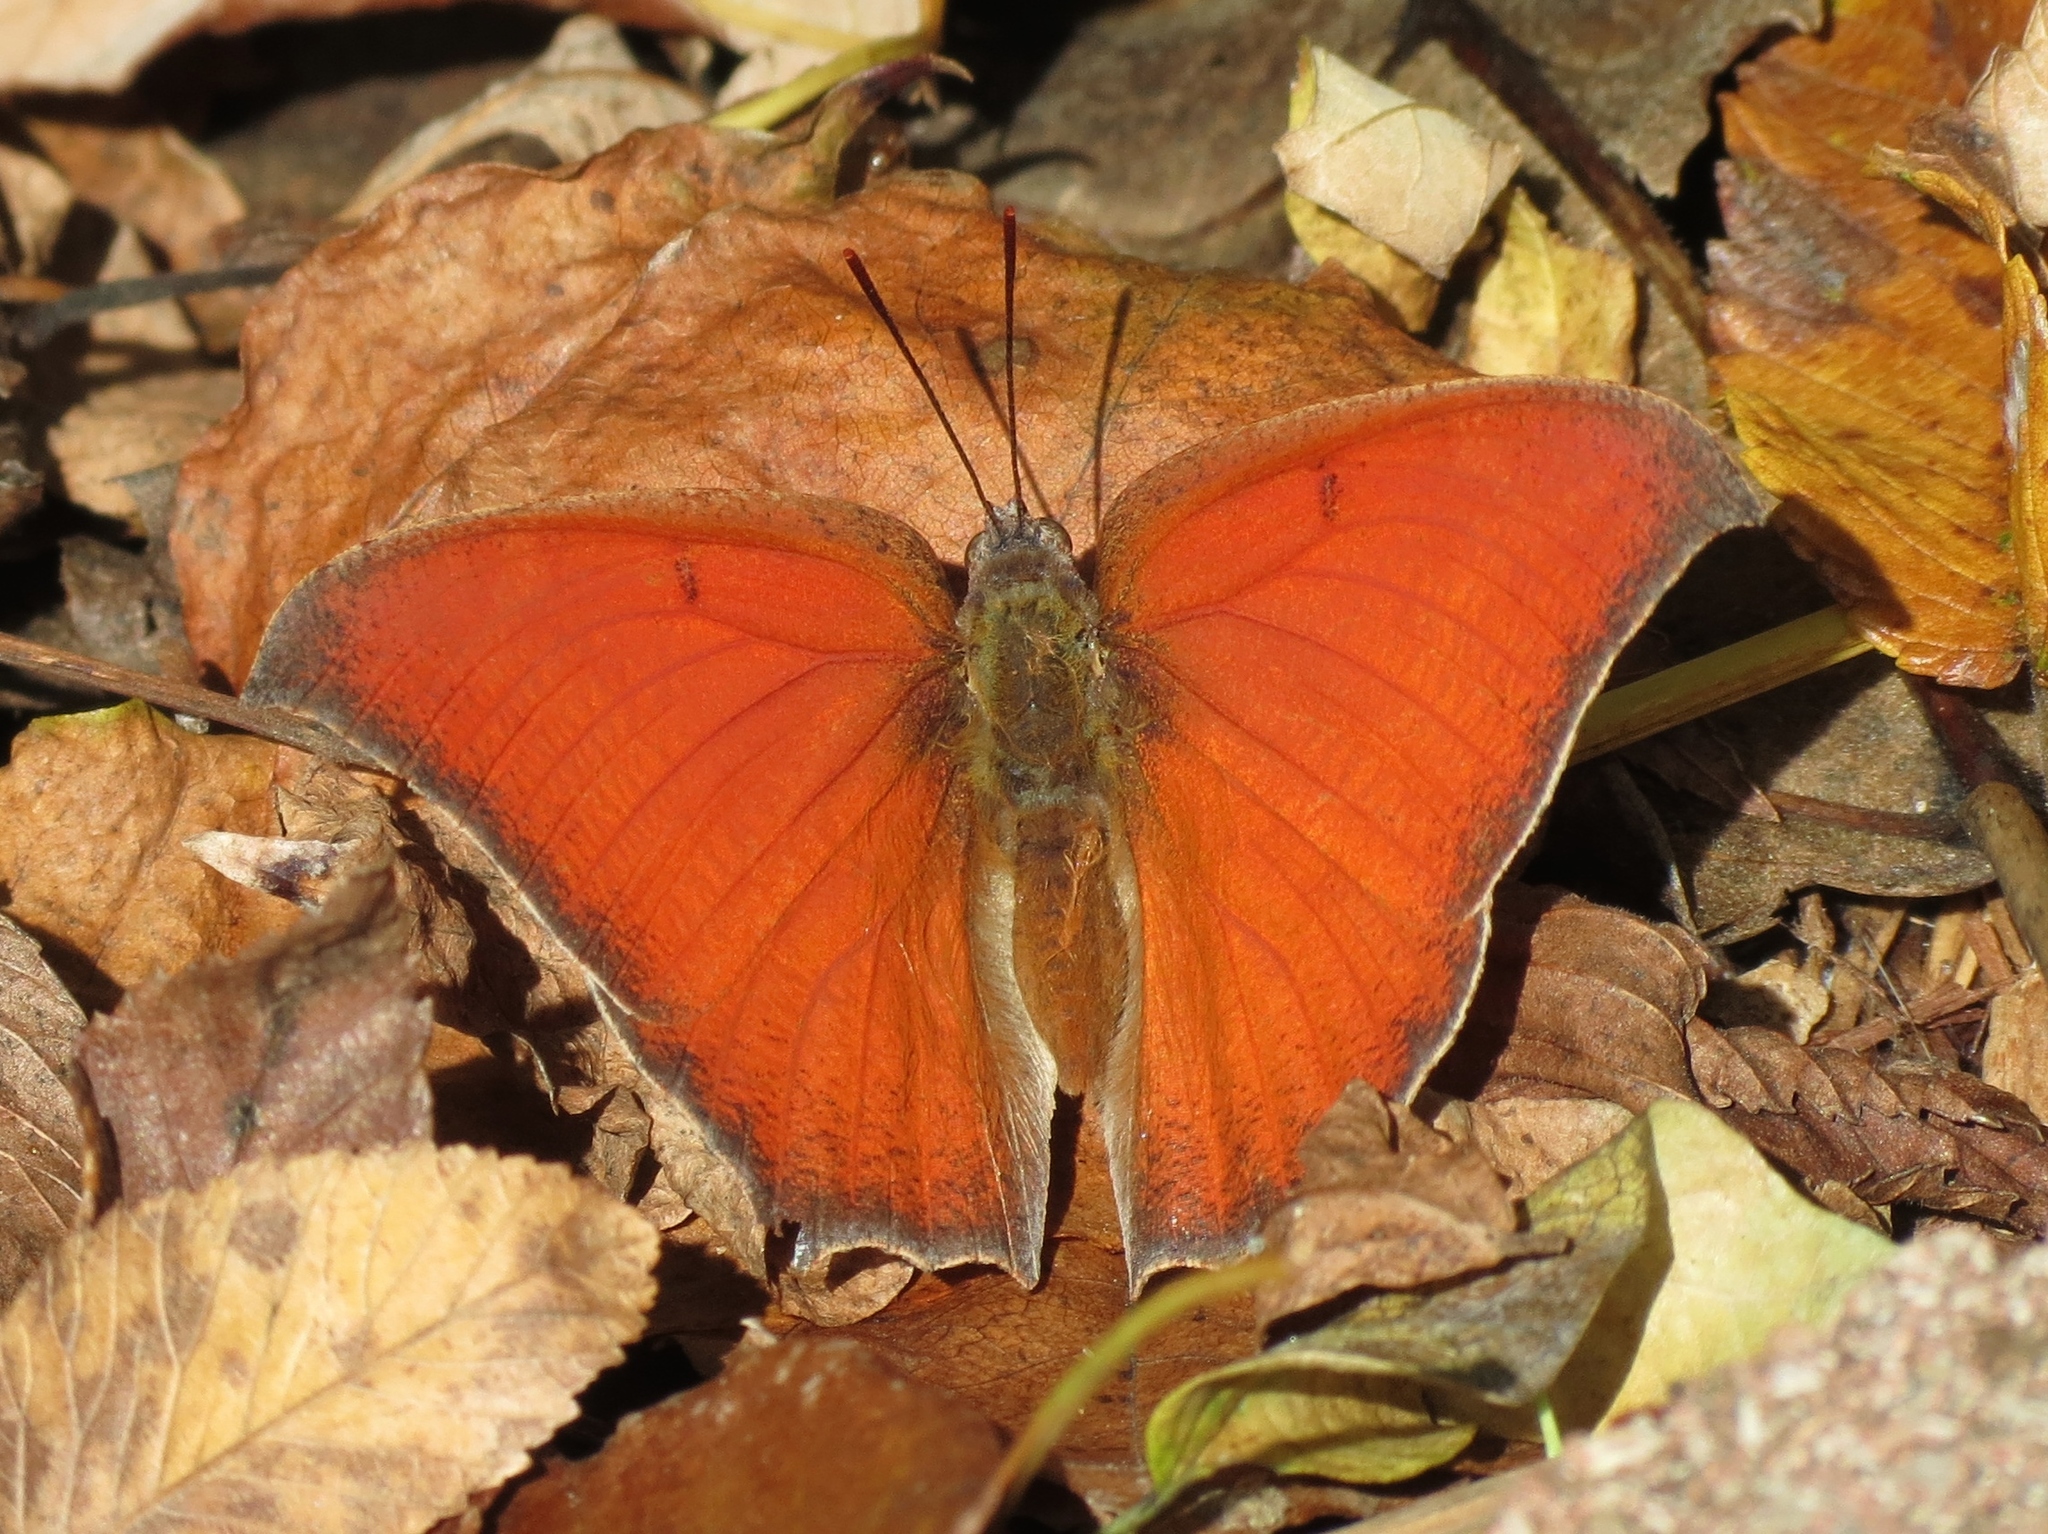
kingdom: Animalia
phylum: Arthropoda
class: Insecta
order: Lepidoptera
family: Nymphalidae
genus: Anaea
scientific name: Anaea andria
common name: Goatweed leafwing
